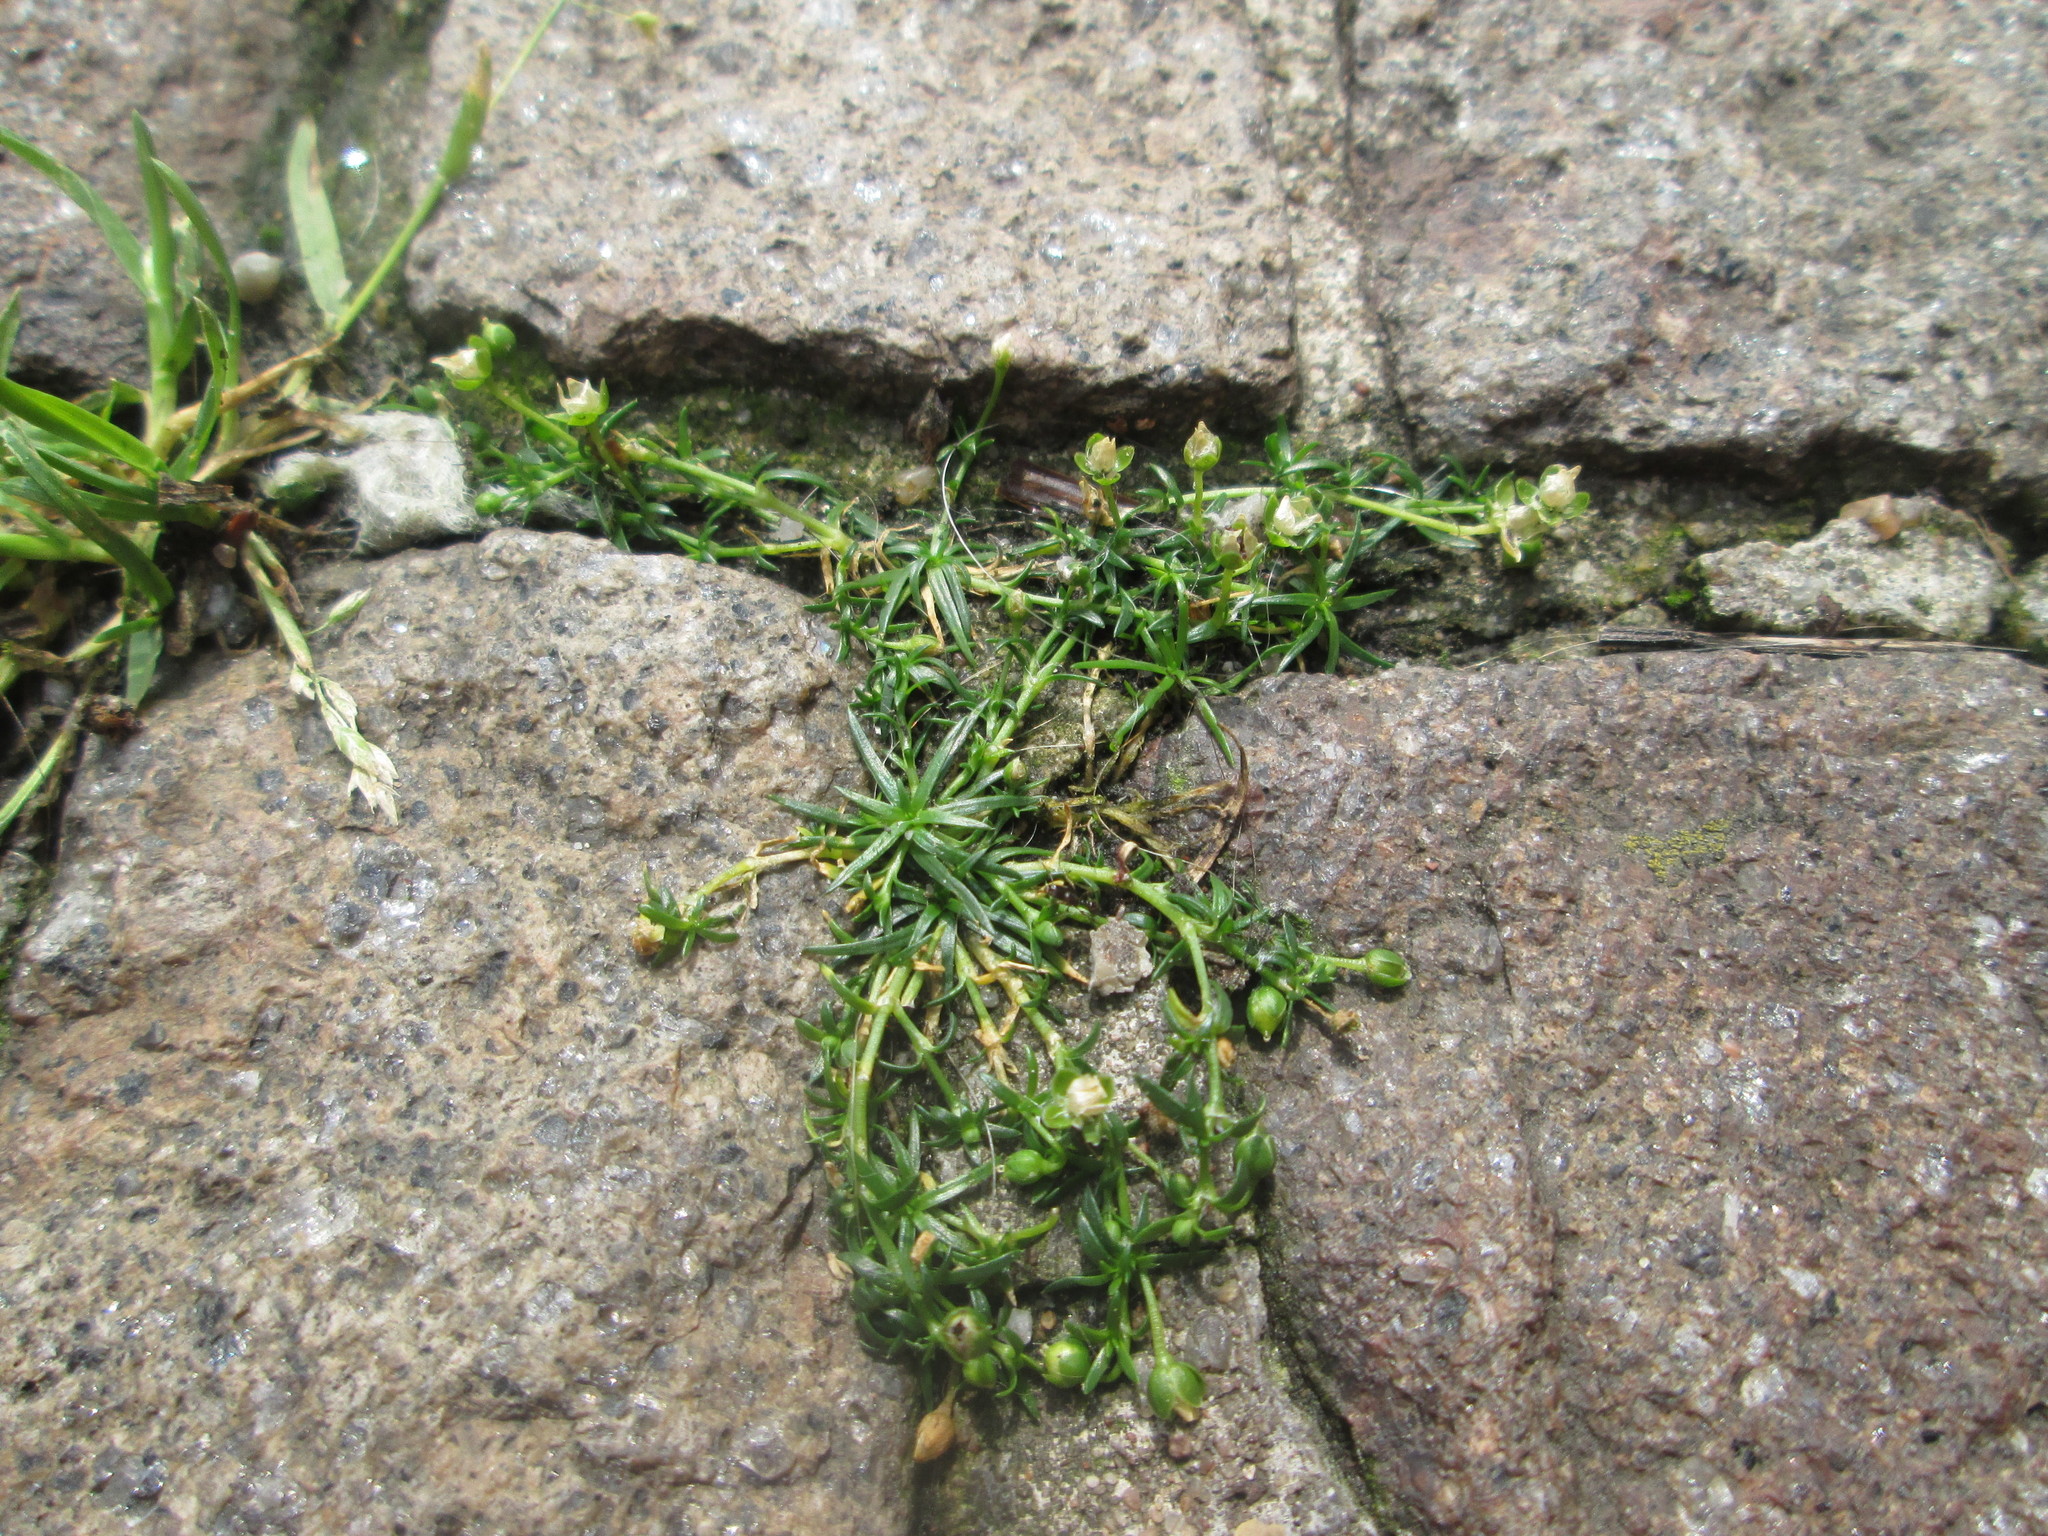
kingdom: Plantae
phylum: Tracheophyta
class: Magnoliopsida
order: Caryophyllales
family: Caryophyllaceae
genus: Sagina
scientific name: Sagina procumbens
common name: Procumbent pearlwort
